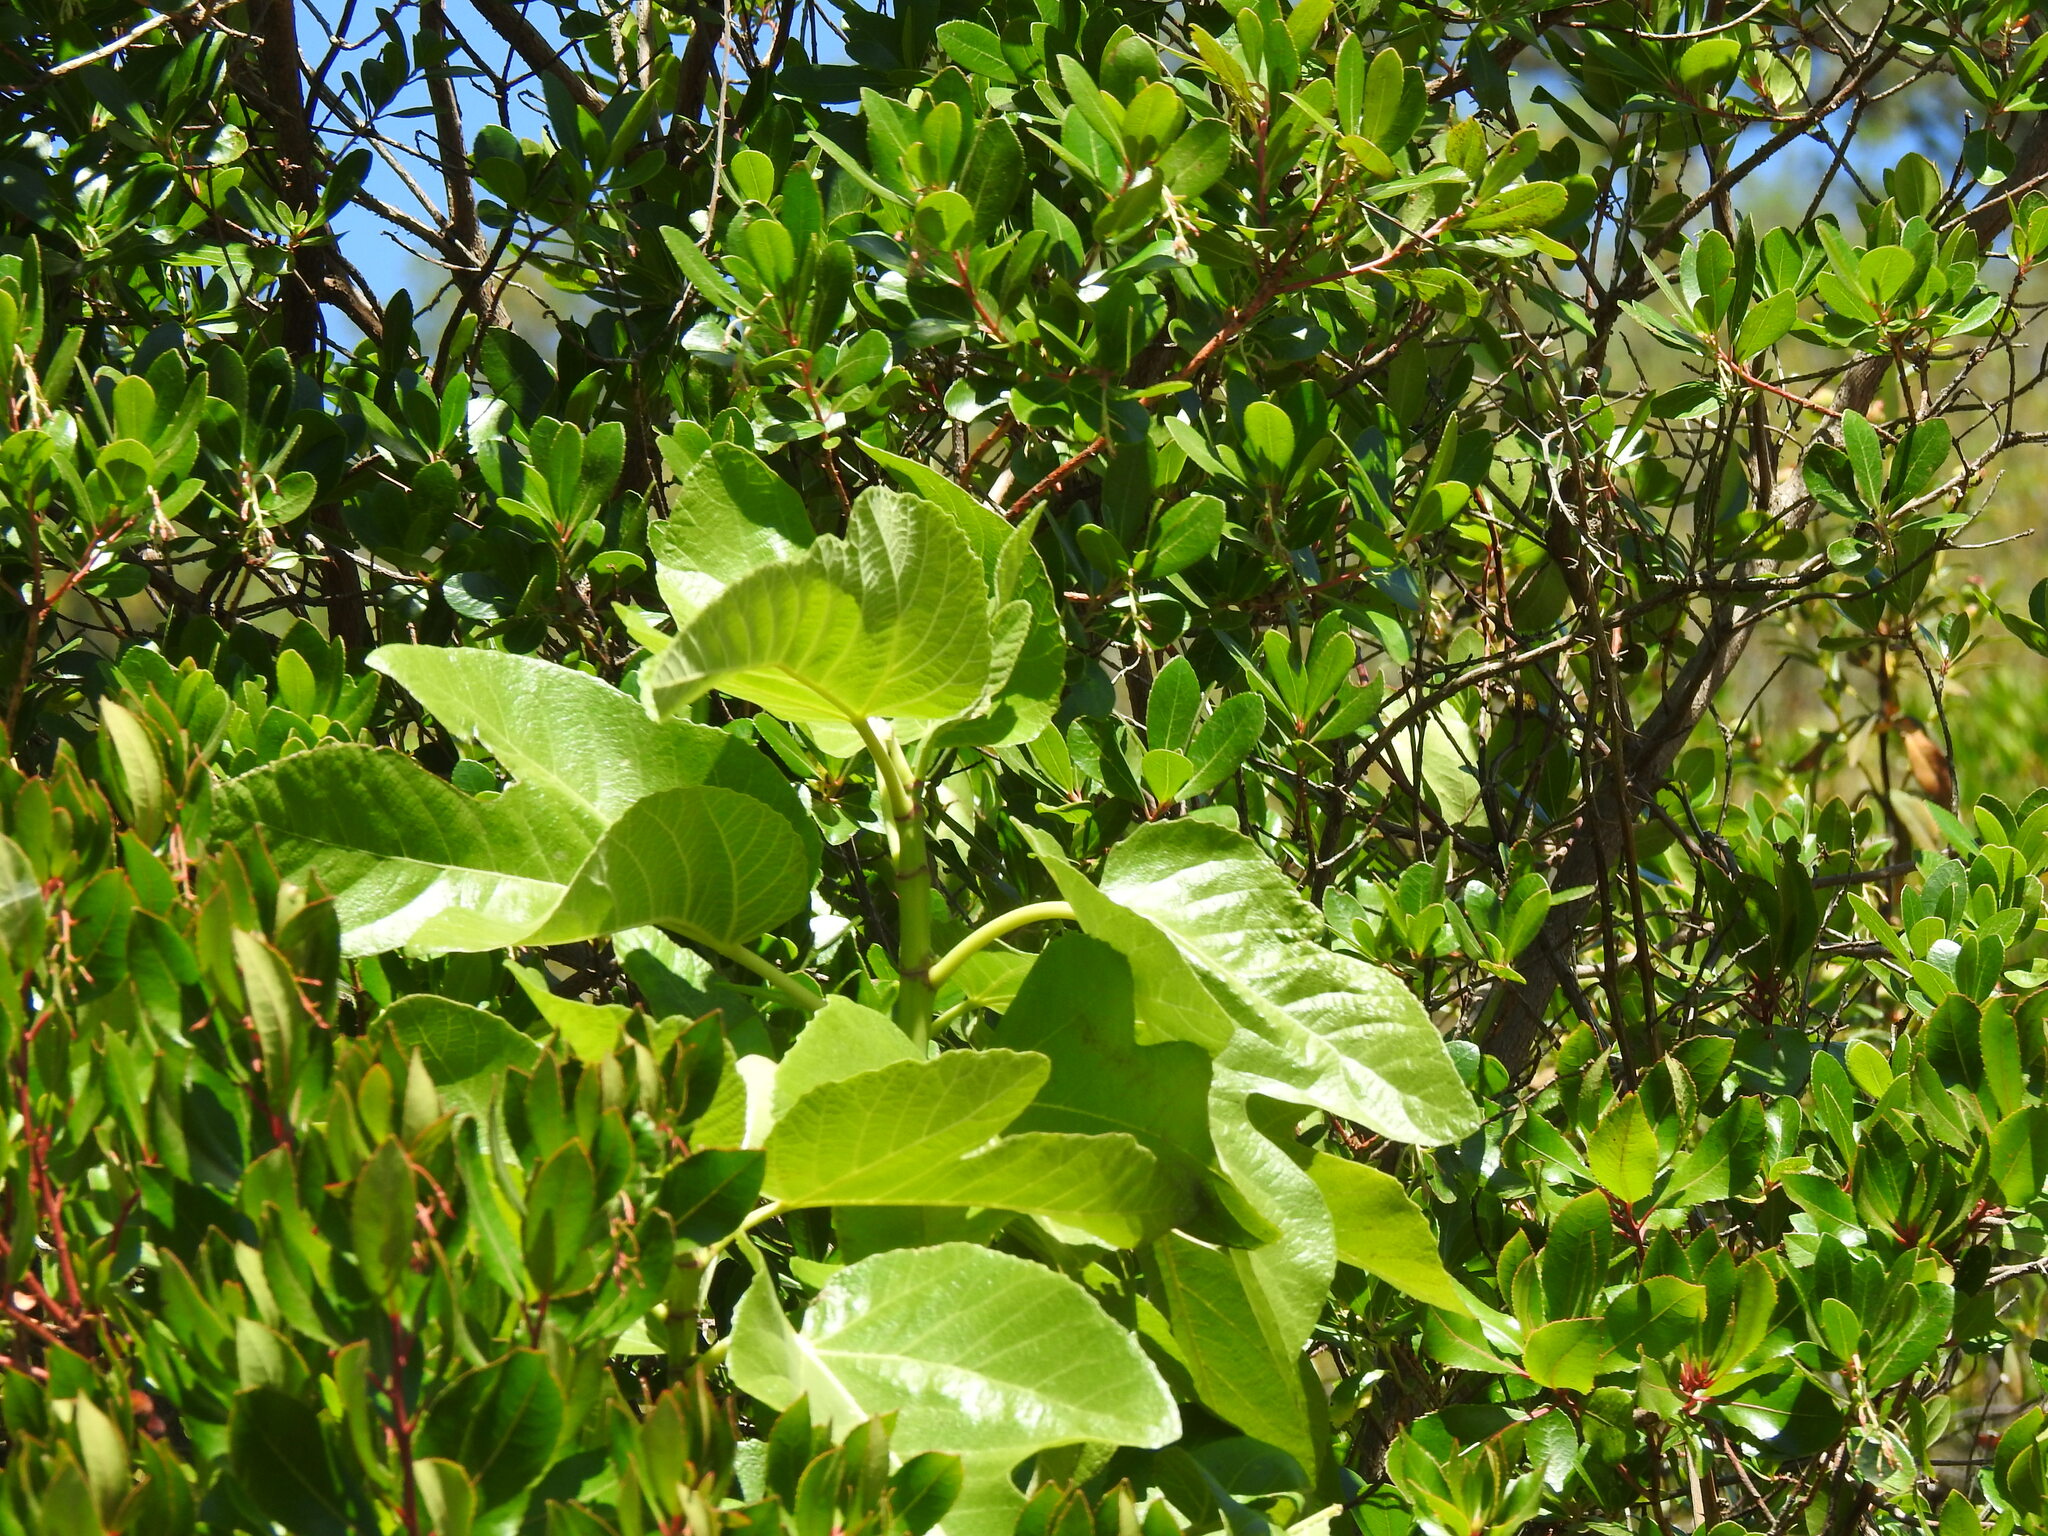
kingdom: Plantae
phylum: Tracheophyta
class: Magnoliopsida
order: Rosales
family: Moraceae
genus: Ficus
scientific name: Ficus carica
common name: Fig
